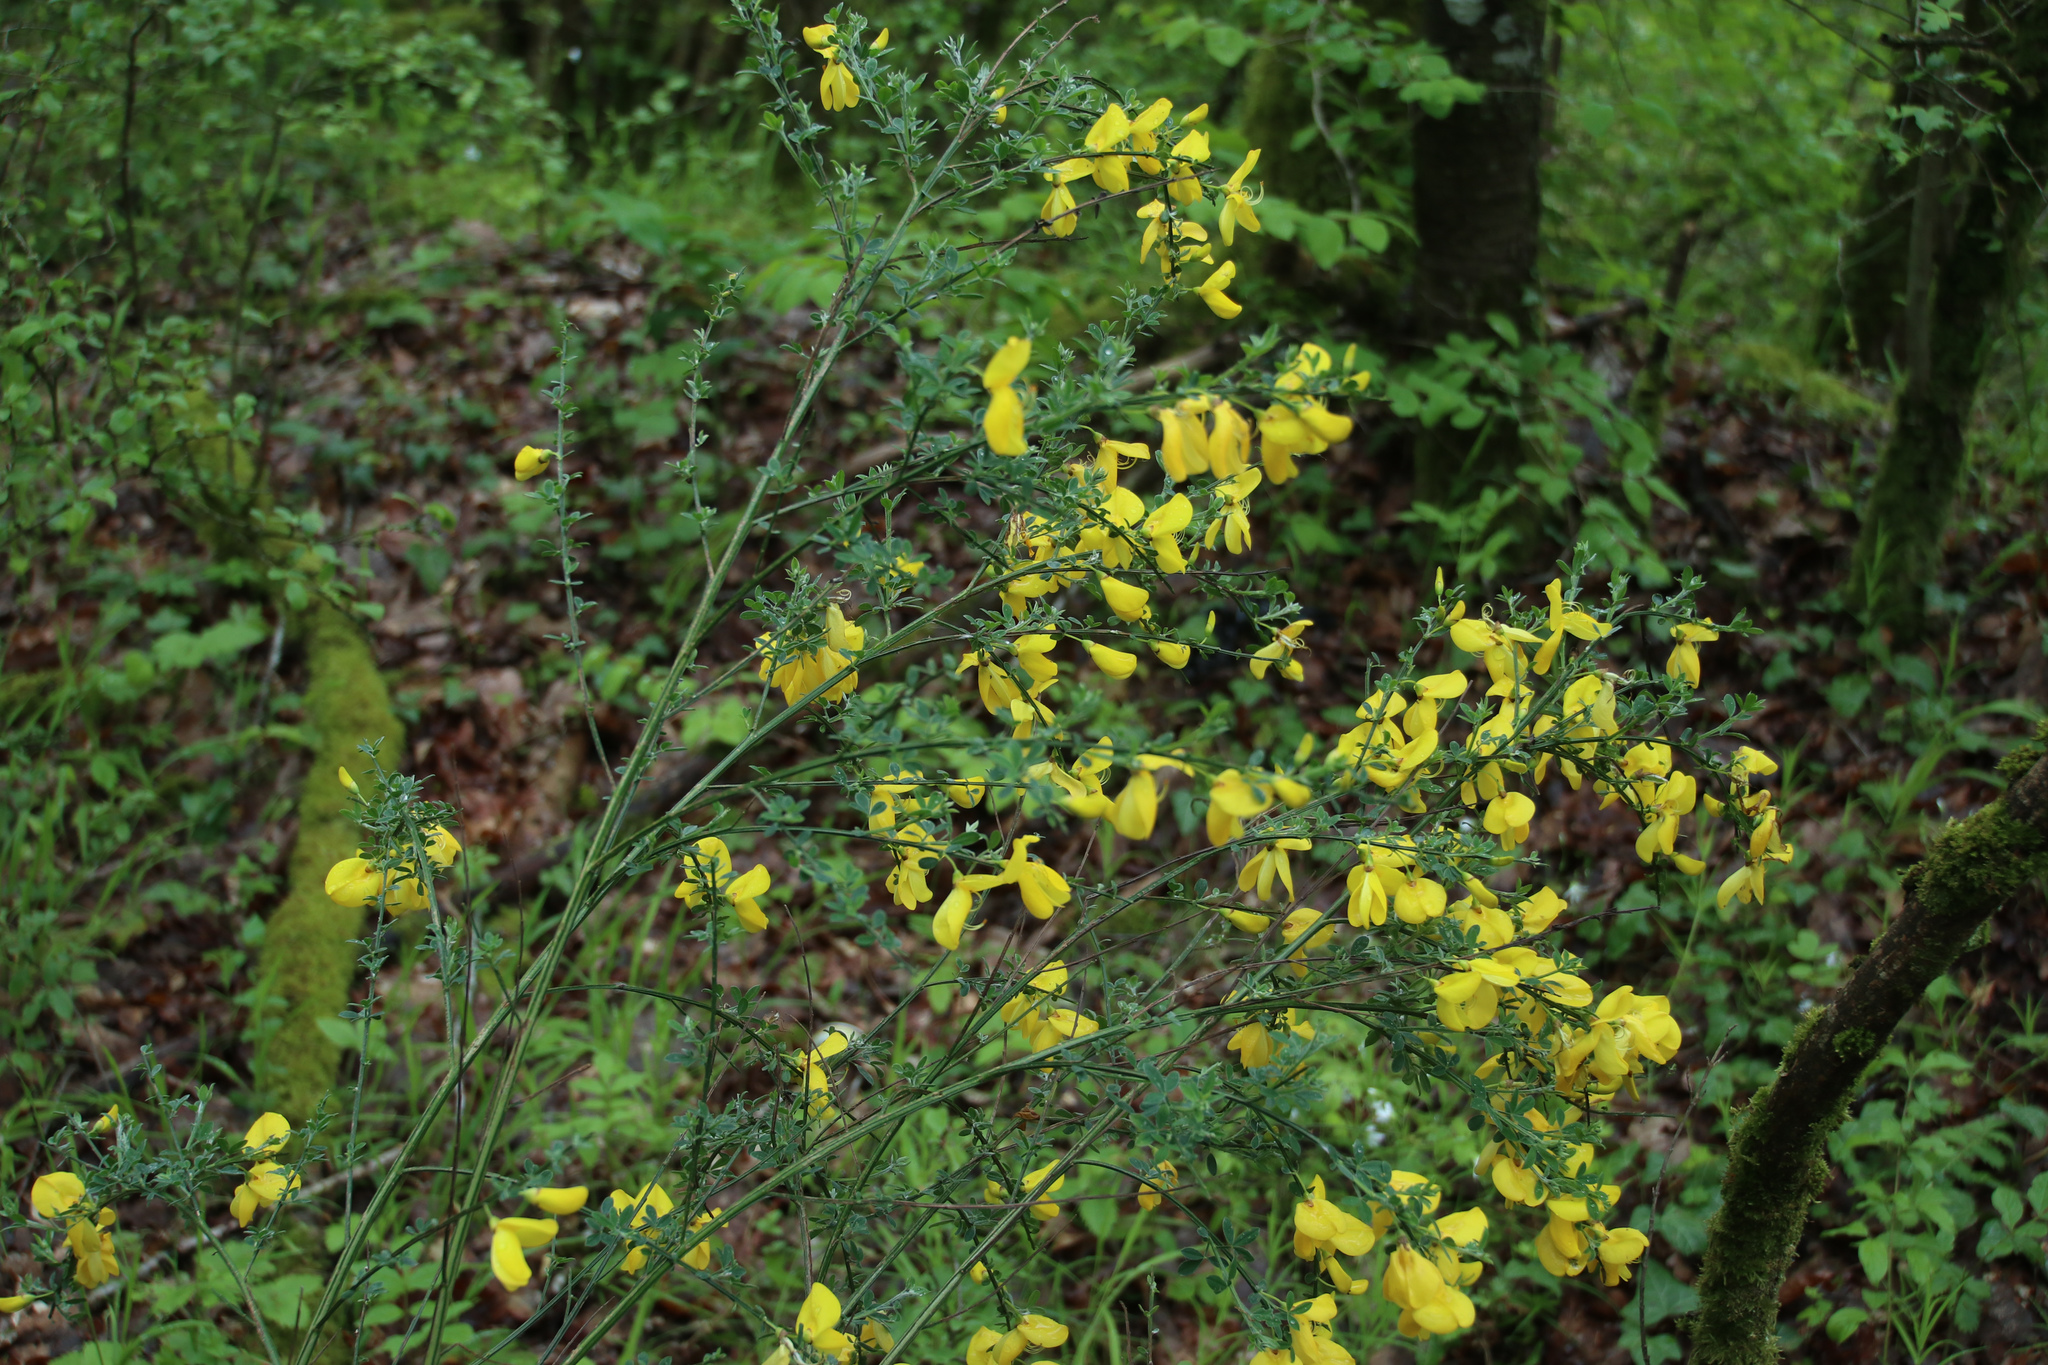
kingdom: Plantae
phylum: Tracheophyta
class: Magnoliopsida
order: Fabales
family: Fabaceae
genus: Cytisus
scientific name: Cytisus scoparius
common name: Scotch broom
